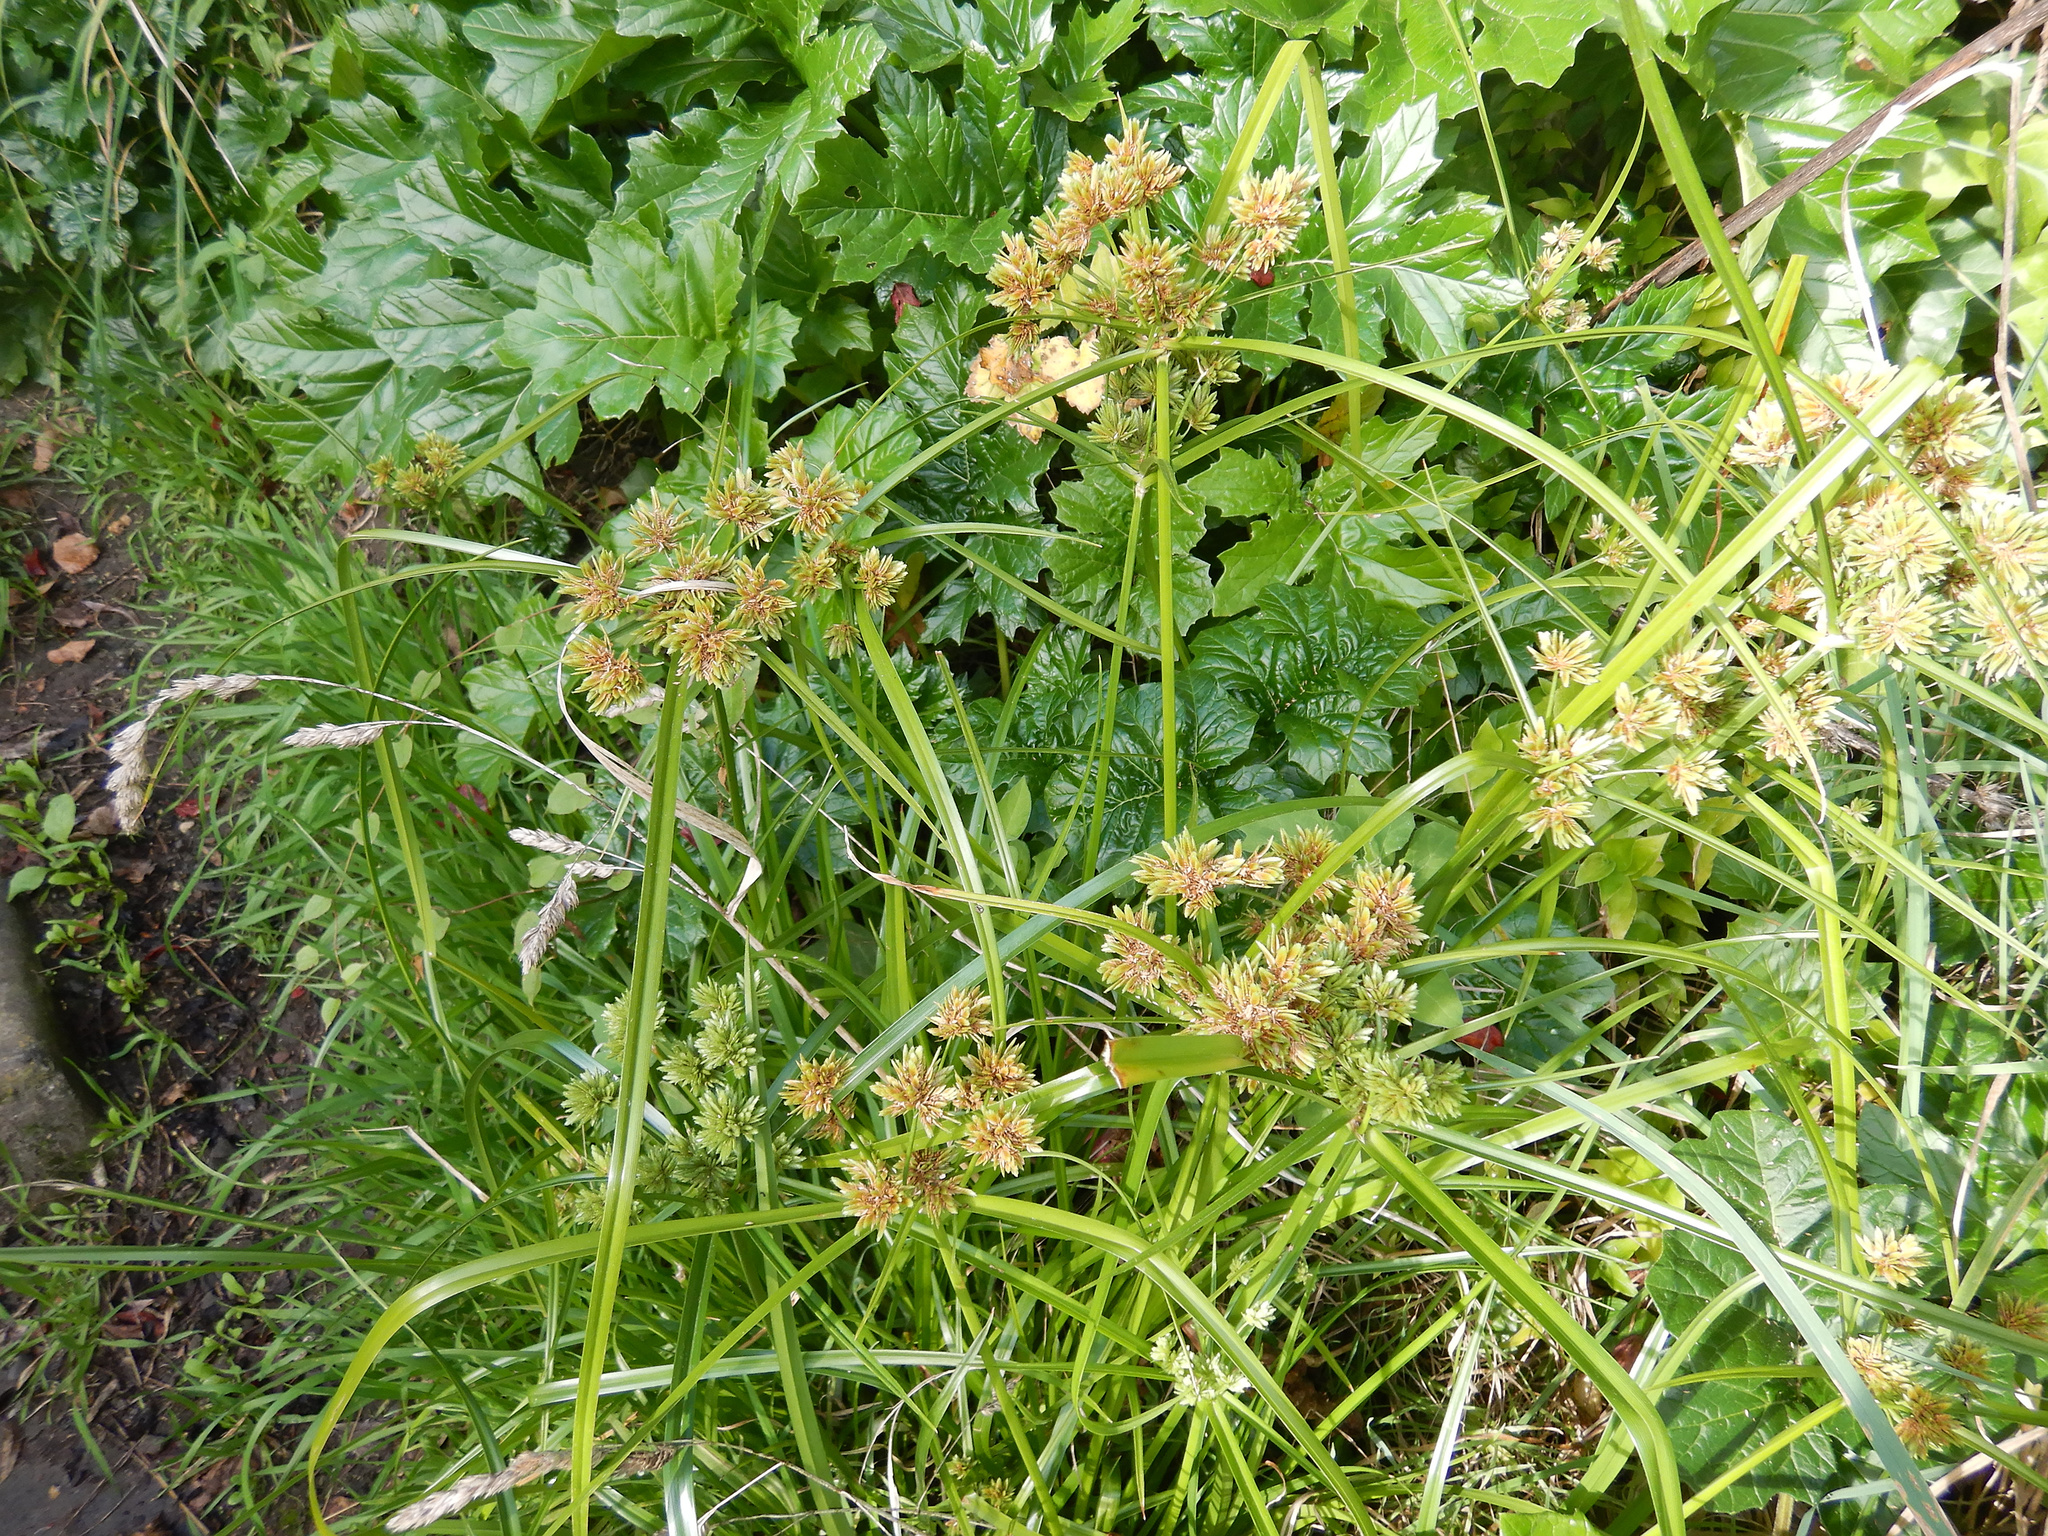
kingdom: Plantae
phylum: Tracheophyta
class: Liliopsida
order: Poales
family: Cyperaceae
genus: Cyperus
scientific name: Cyperus eragrostis
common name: Tall flatsedge
